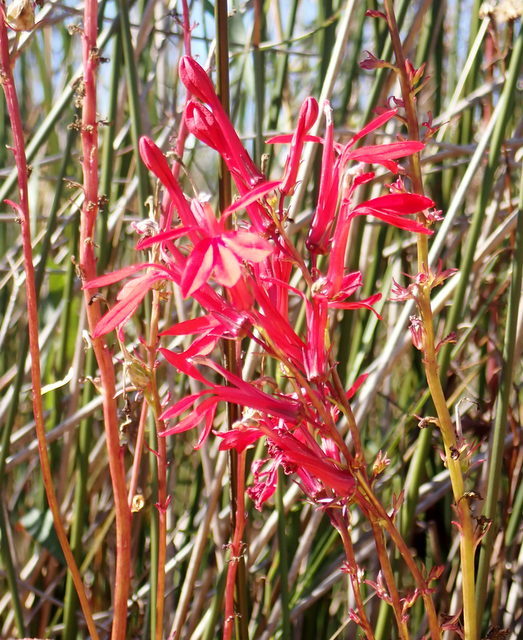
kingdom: Plantae
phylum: Tracheophyta
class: Magnoliopsida
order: Asterales
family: Campanulaceae
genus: Lobelia
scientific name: Lobelia cardinalis
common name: Cardinal flower
